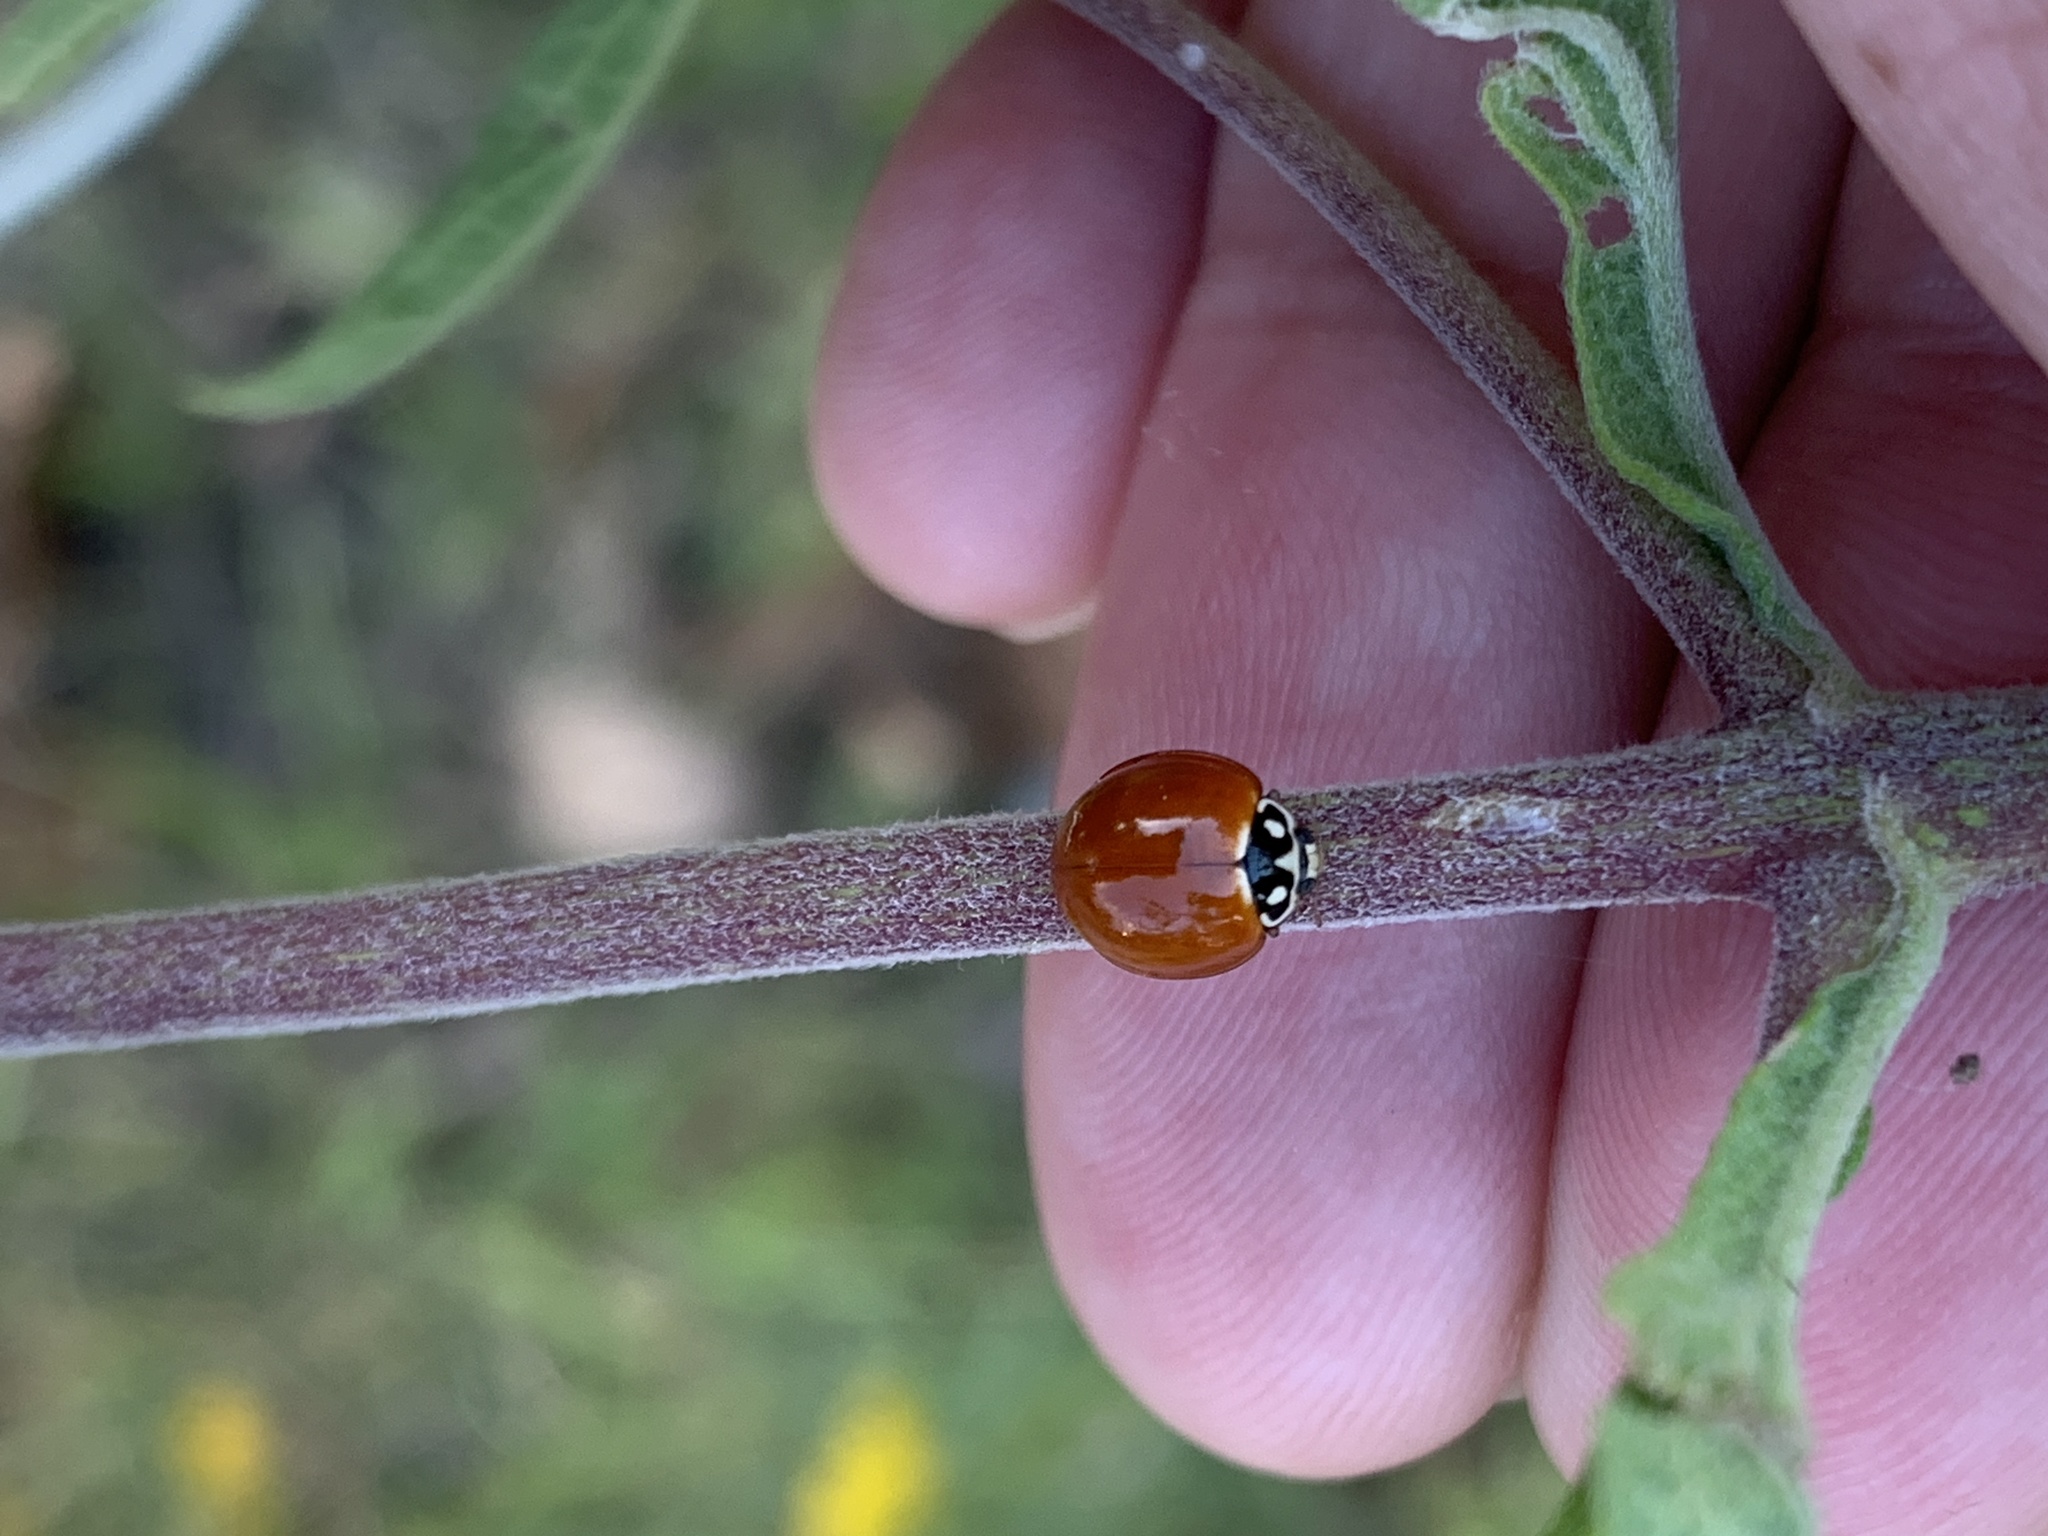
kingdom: Animalia
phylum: Arthropoda
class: Insecta
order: Coleoptera
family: Coccinellidae
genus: Cycloneda
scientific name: Cycloneda sanguinea
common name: Ladybird beetle
